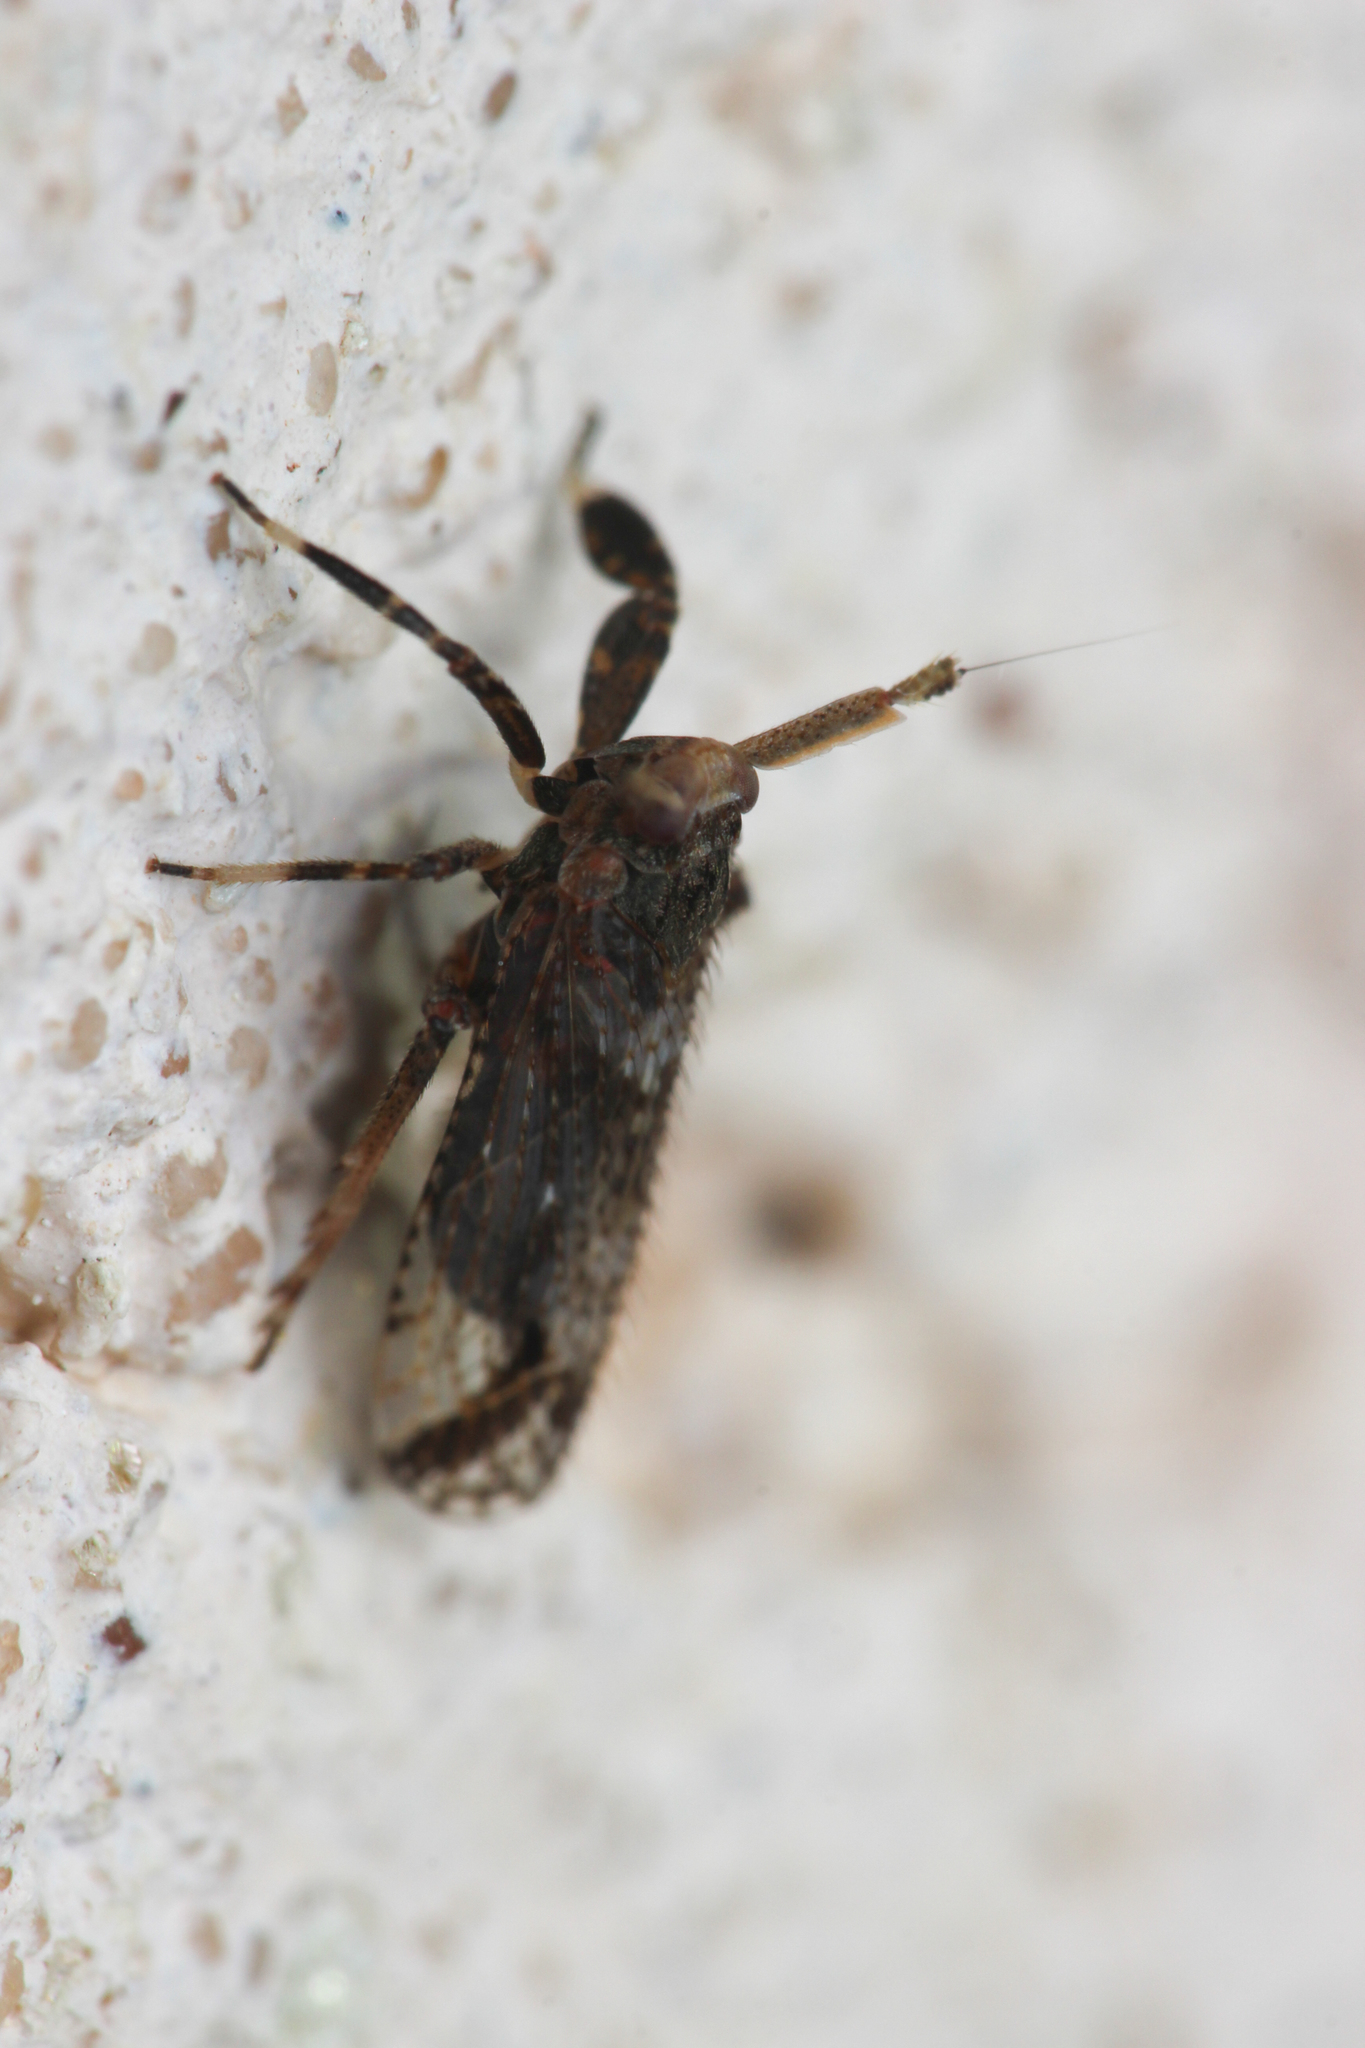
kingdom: Animalia
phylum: Arthropoda
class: Insecta
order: Hemiptera
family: Delphacidae
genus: Asiraca
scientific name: Asiraca clavicornis
